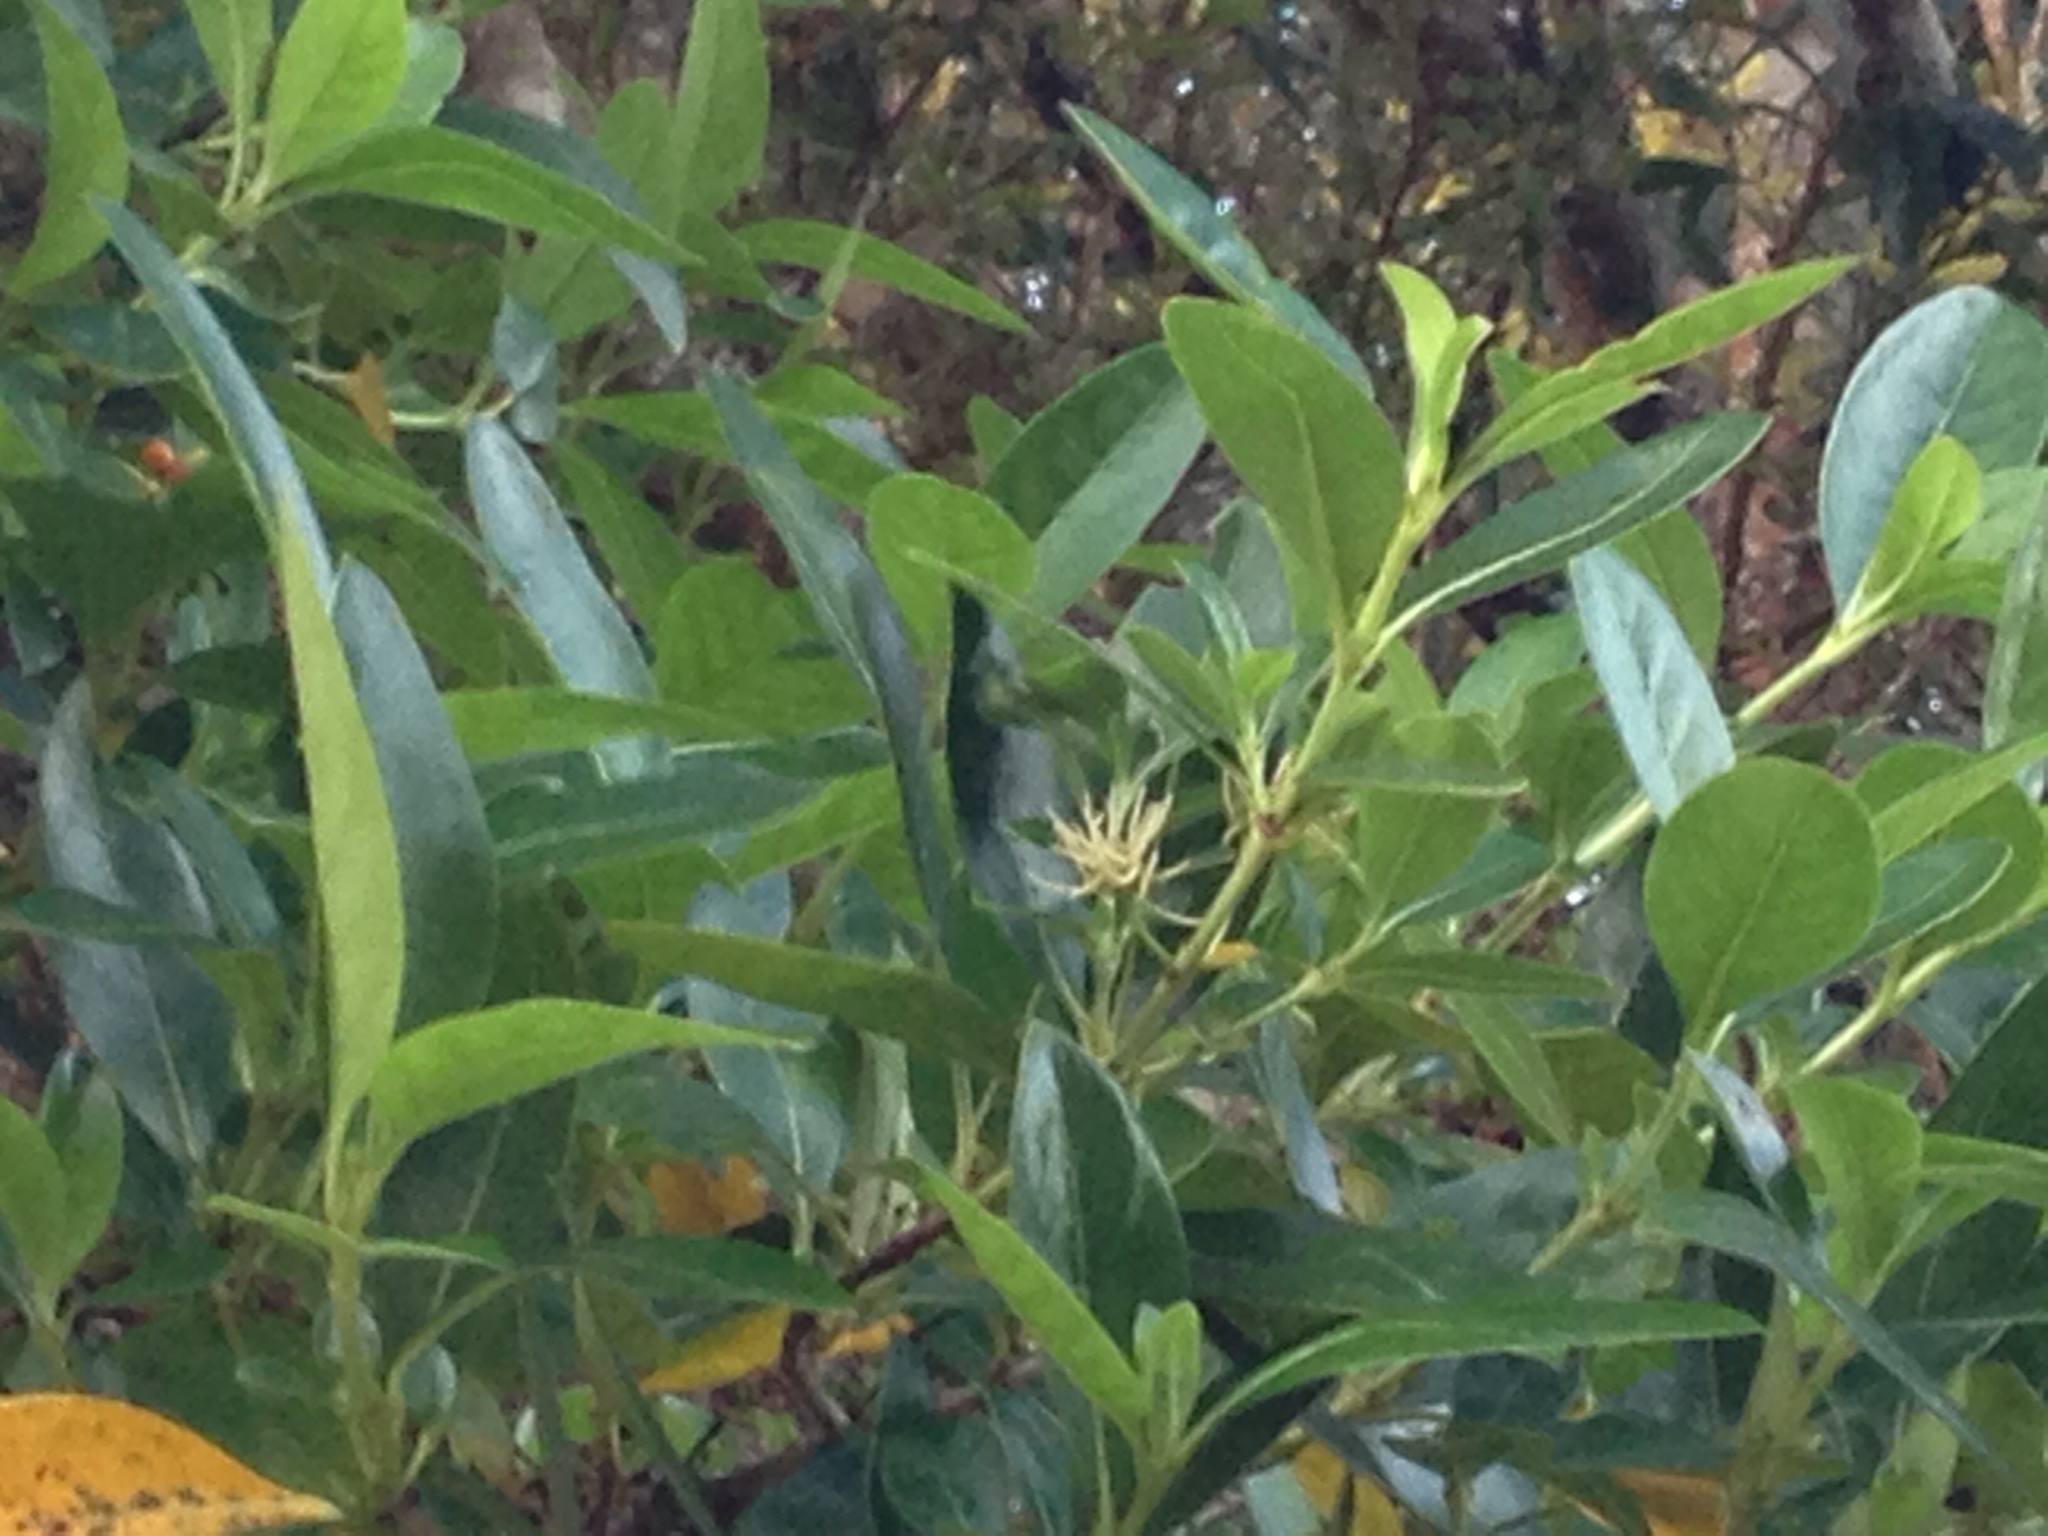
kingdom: Plantae
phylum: Tracheophyta
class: Magnoliopsida
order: Gentianales
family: Rubiaceae
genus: Coprosma
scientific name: Coprosma lucida
